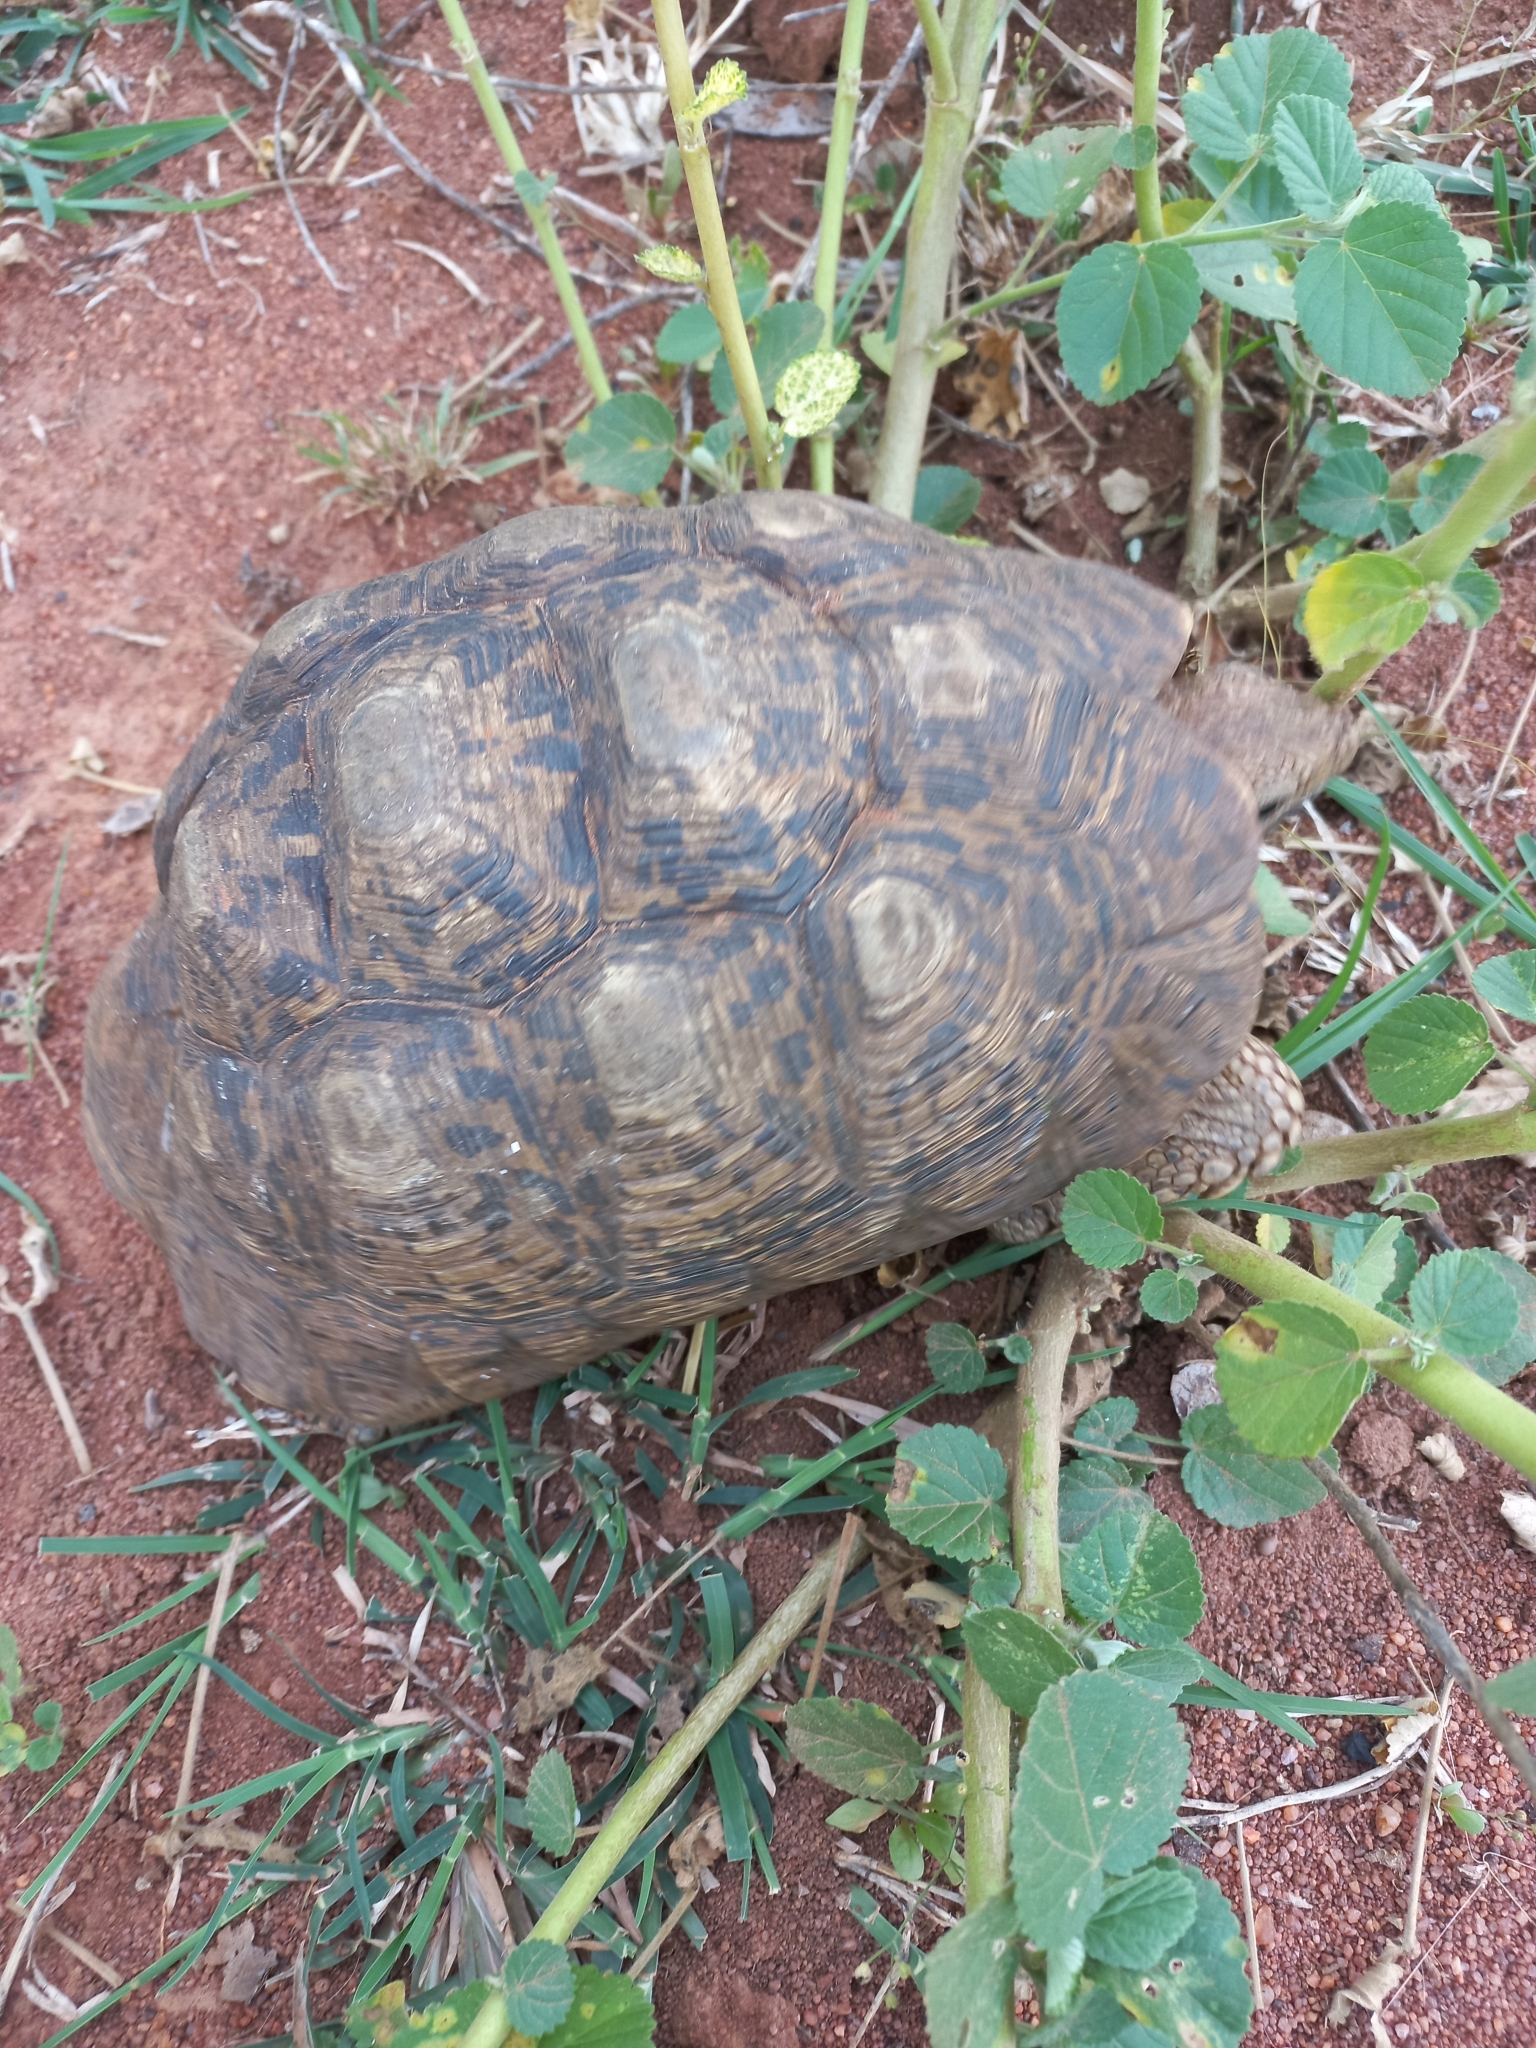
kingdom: Animalia
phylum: Chordata
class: Testudines
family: Testudinidae
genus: Stigmochelys
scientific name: Stigmochelys pardalis
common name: Leopard tortoise
